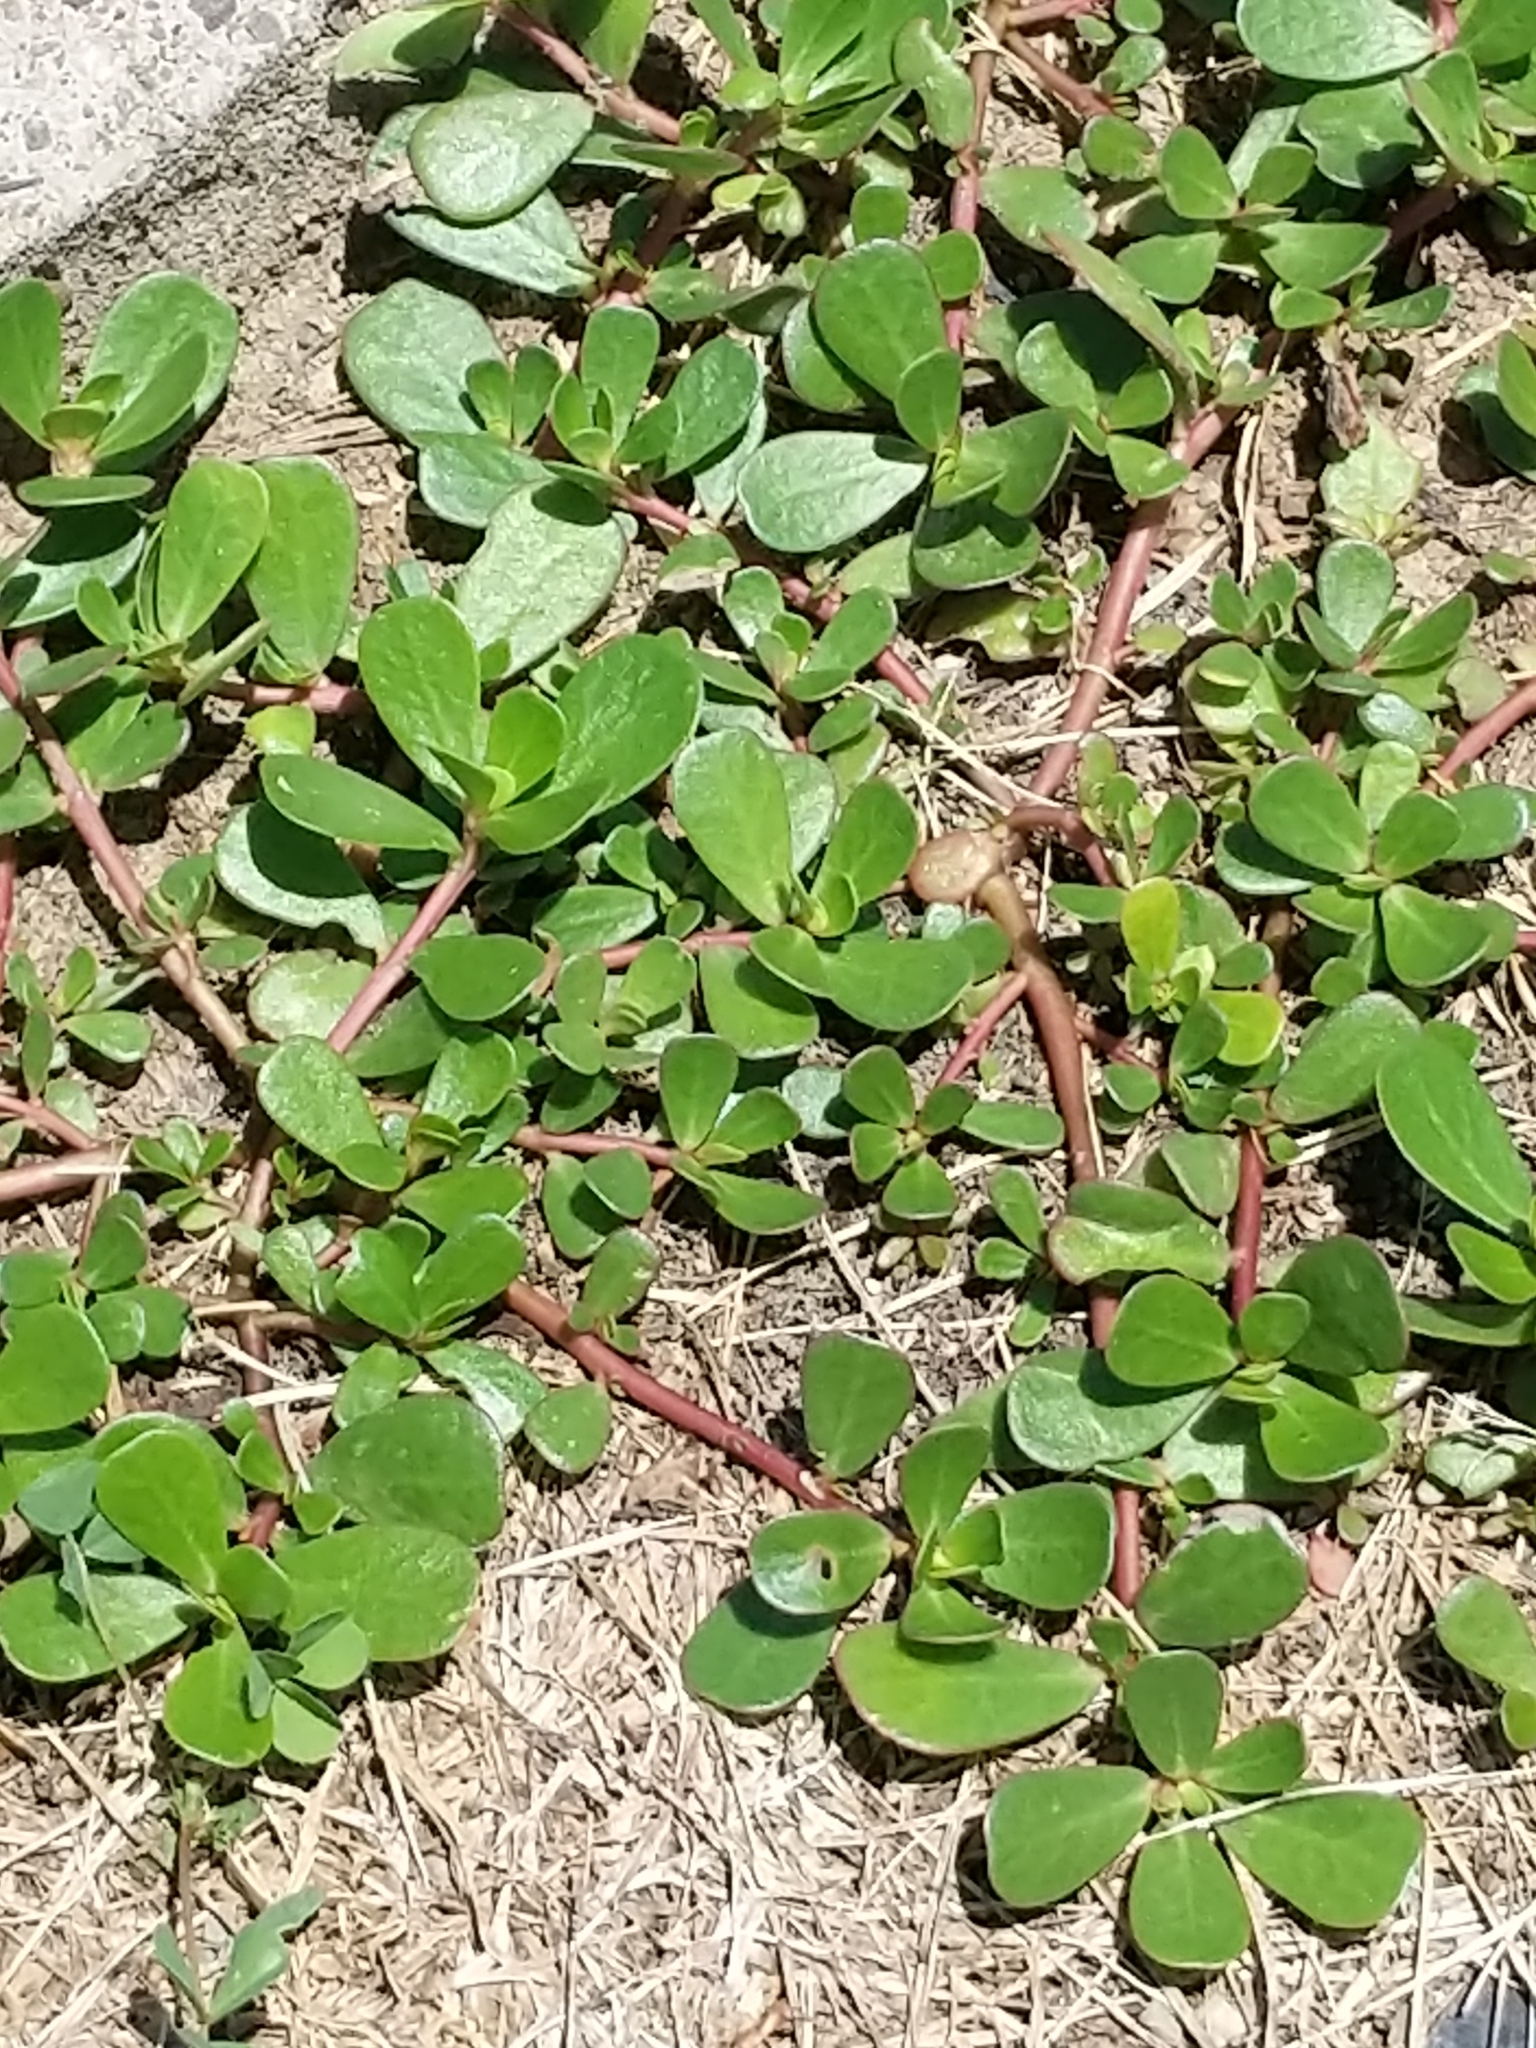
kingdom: Plantae
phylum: Tracheophyta
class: Magnoliopsida
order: Caryophyllales
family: Portulacaceae
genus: Portulaca
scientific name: Portulaca oleracea
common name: Common purslane
